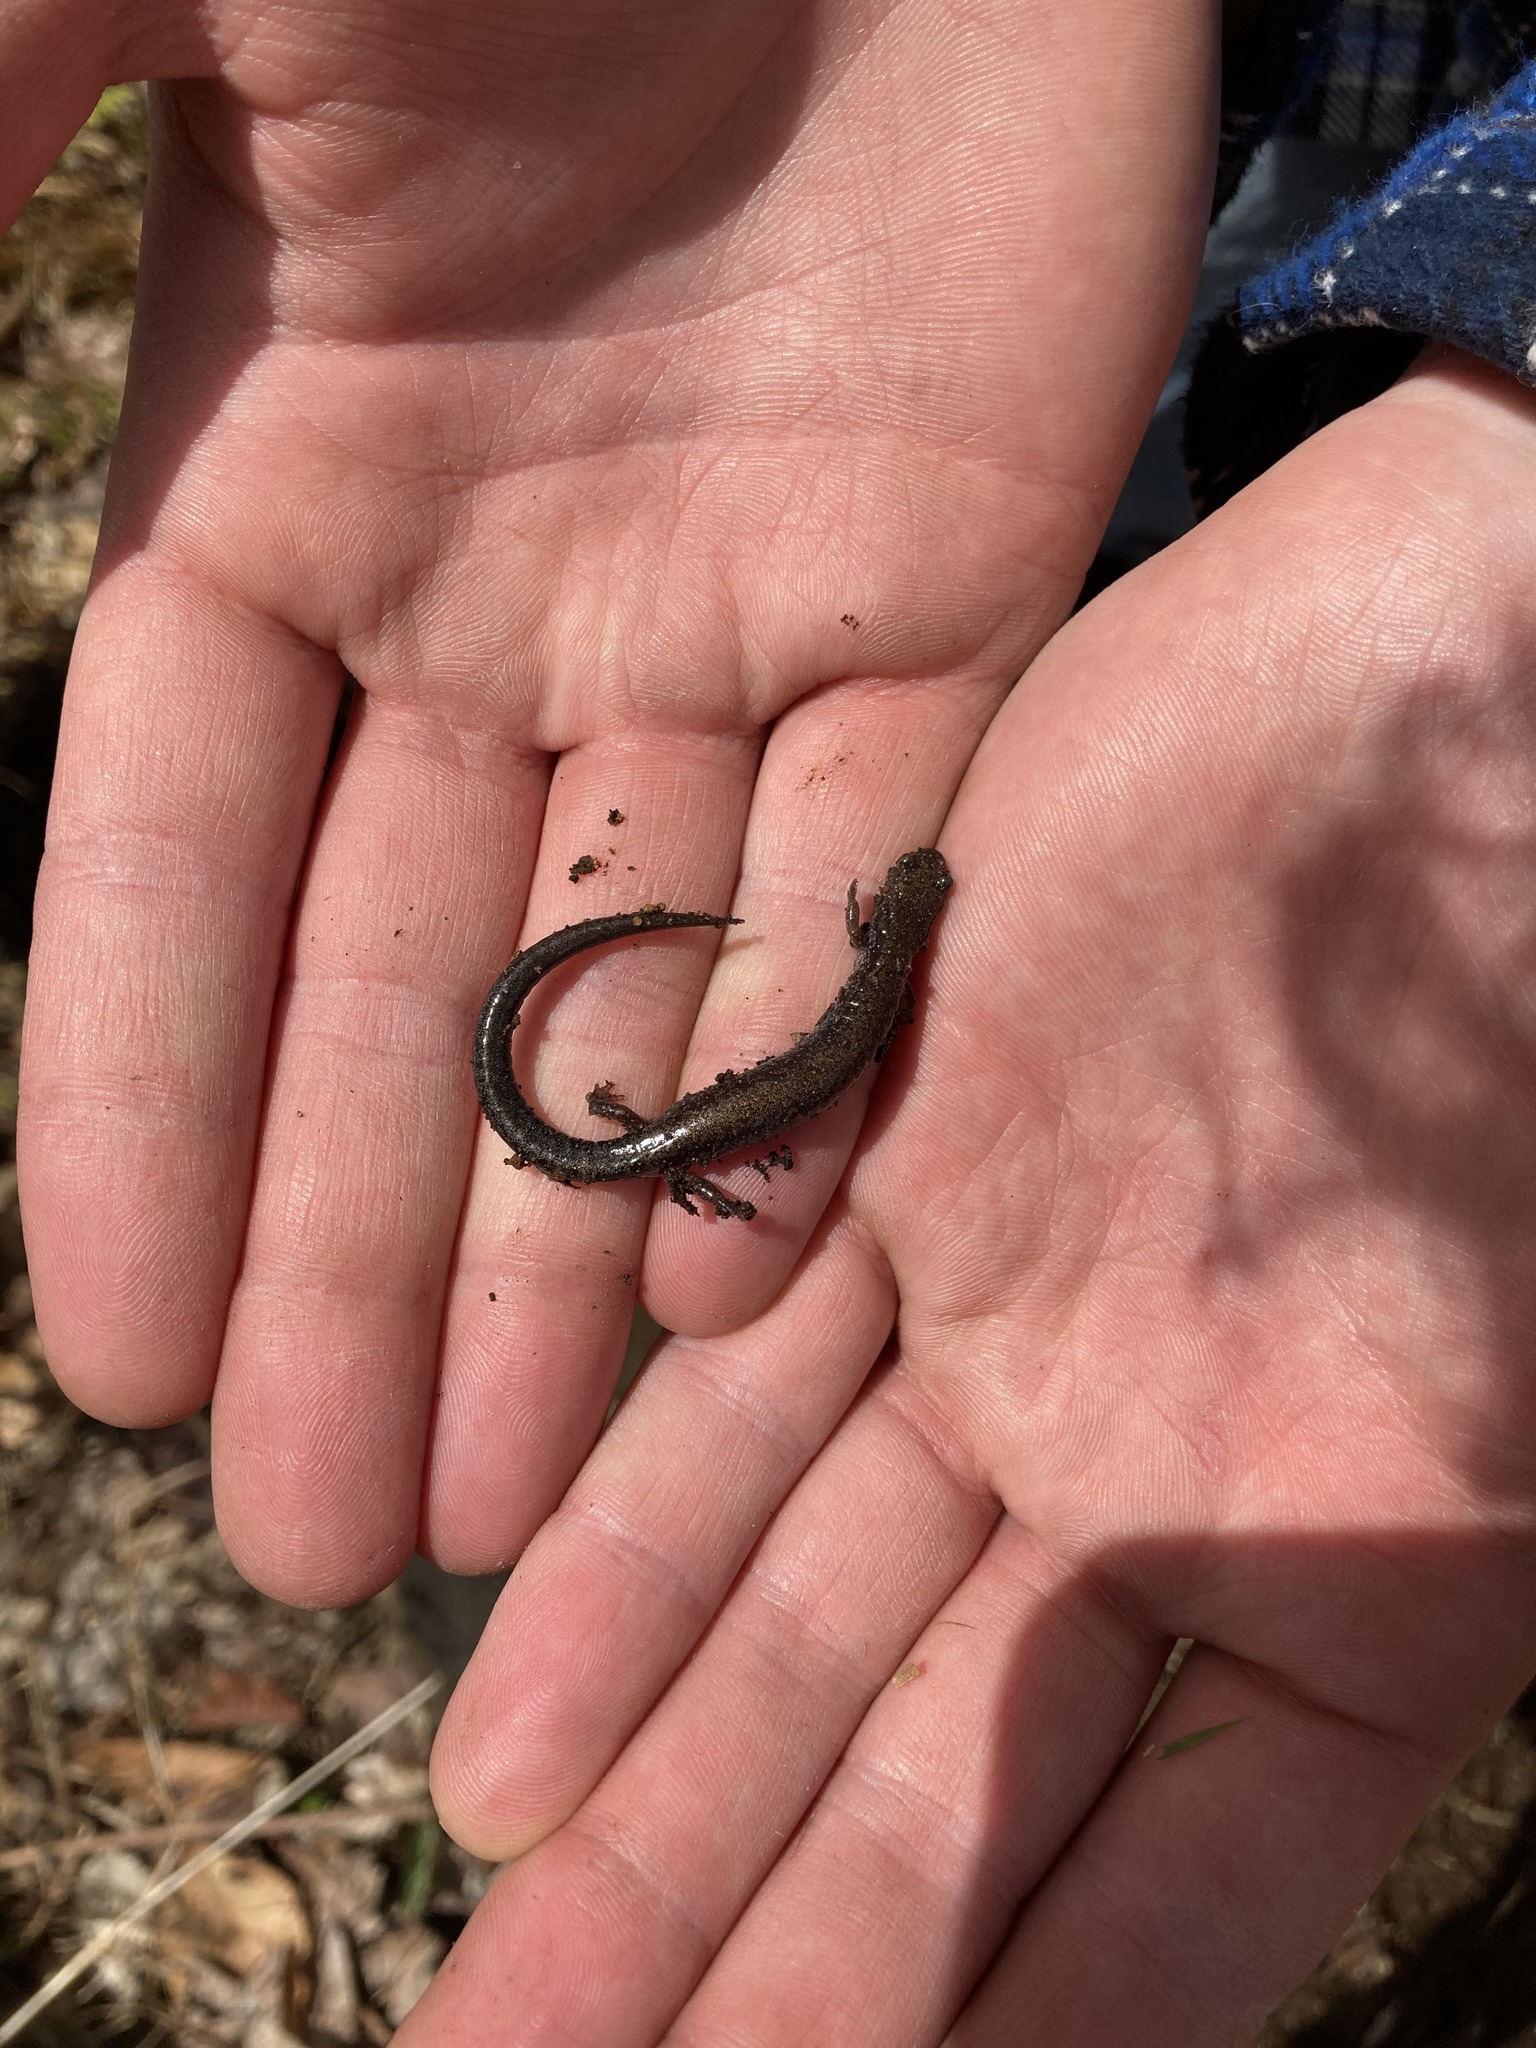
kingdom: Animalia
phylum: Chordata
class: Amphibia
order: Caudata
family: Plethodontidae
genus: Plethodon
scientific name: Plethodon cinereus
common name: Redback salamander
